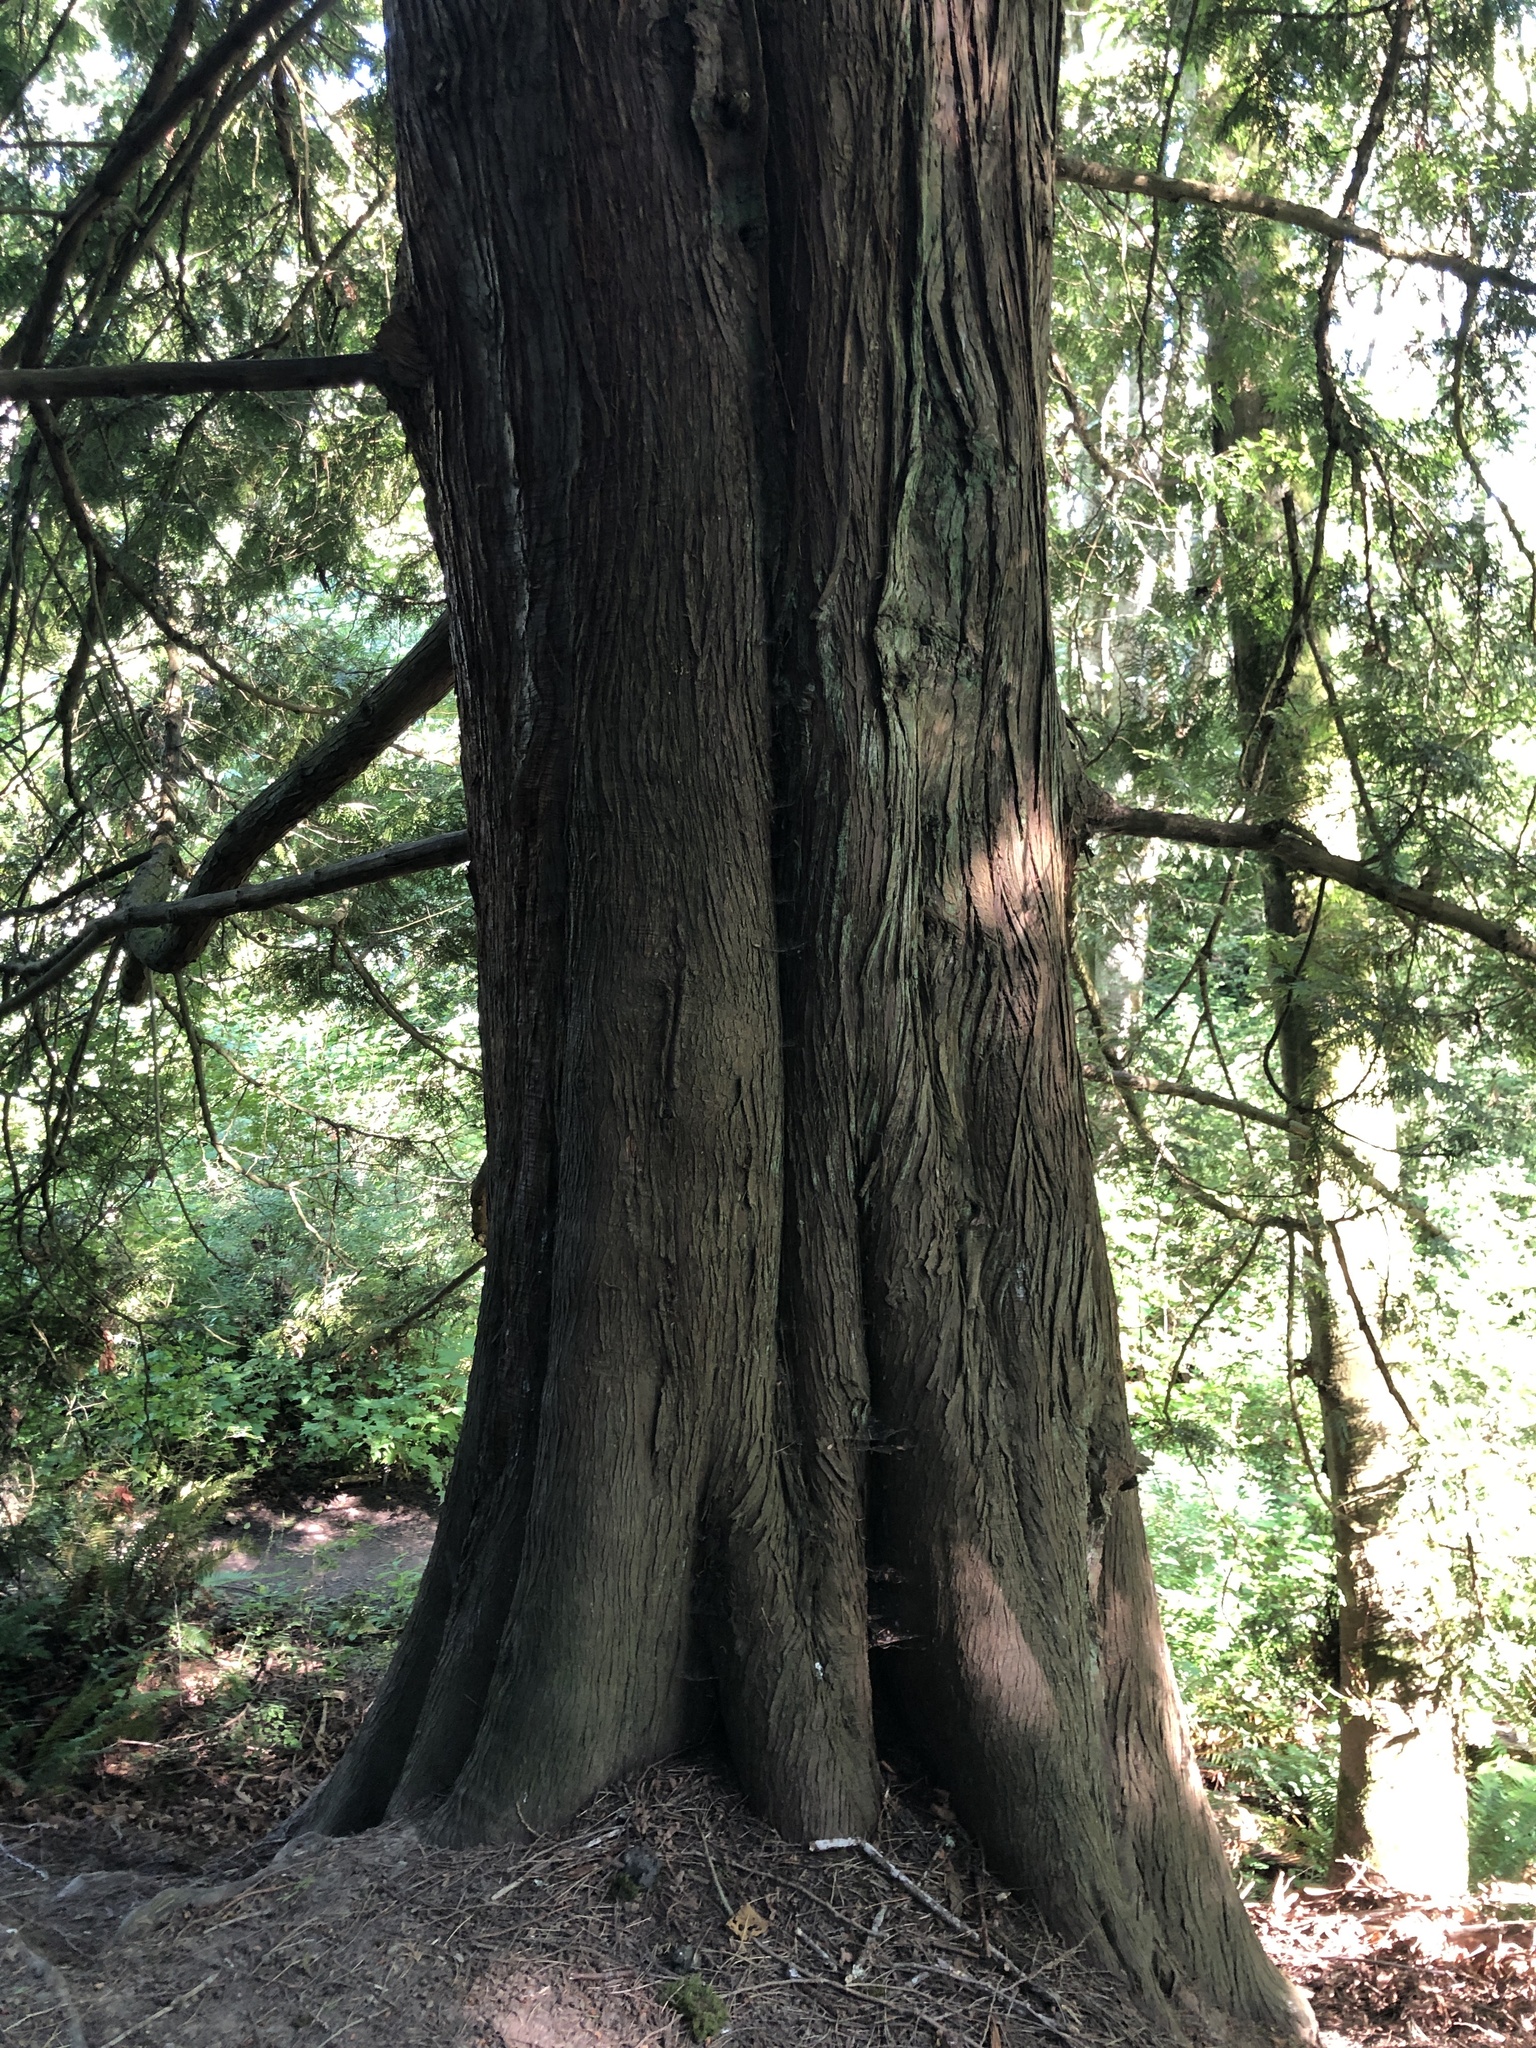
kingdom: Plantae
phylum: Tracheophyta
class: Pinopsida
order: Pinales
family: Cupressaceae
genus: Thuja
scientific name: Thuja plicata
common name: Western red-cedar
